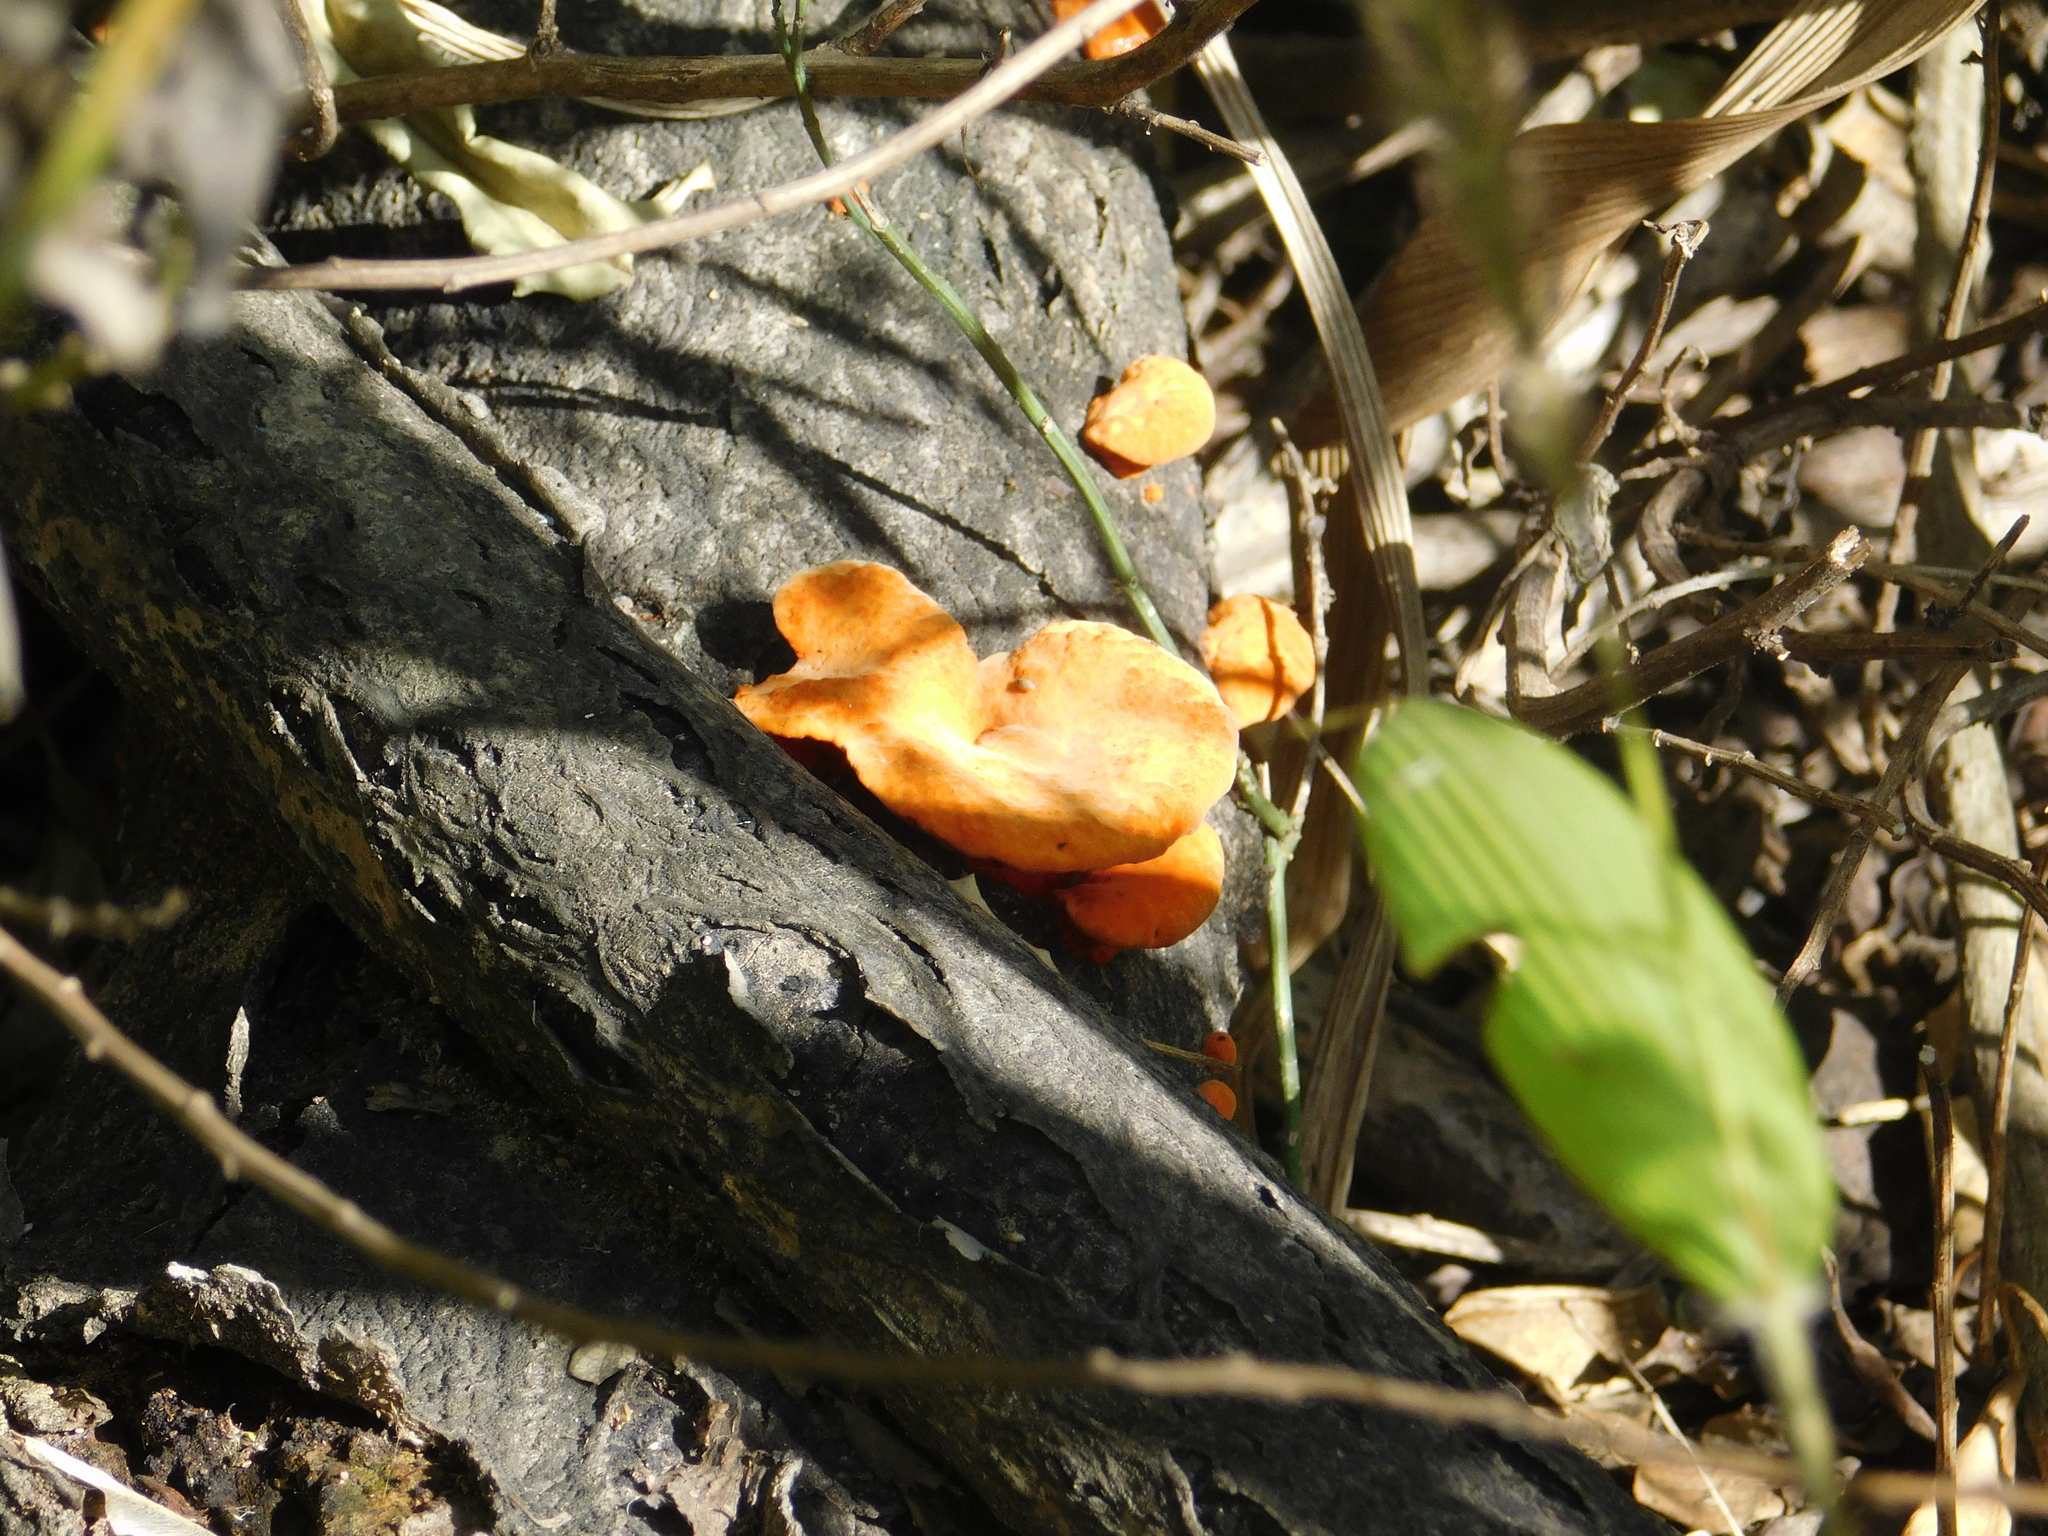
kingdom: Fungi
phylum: Basidiomycota
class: Agaricomycetes
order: Polyporales
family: Polyporaceae
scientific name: Polyporaceae
